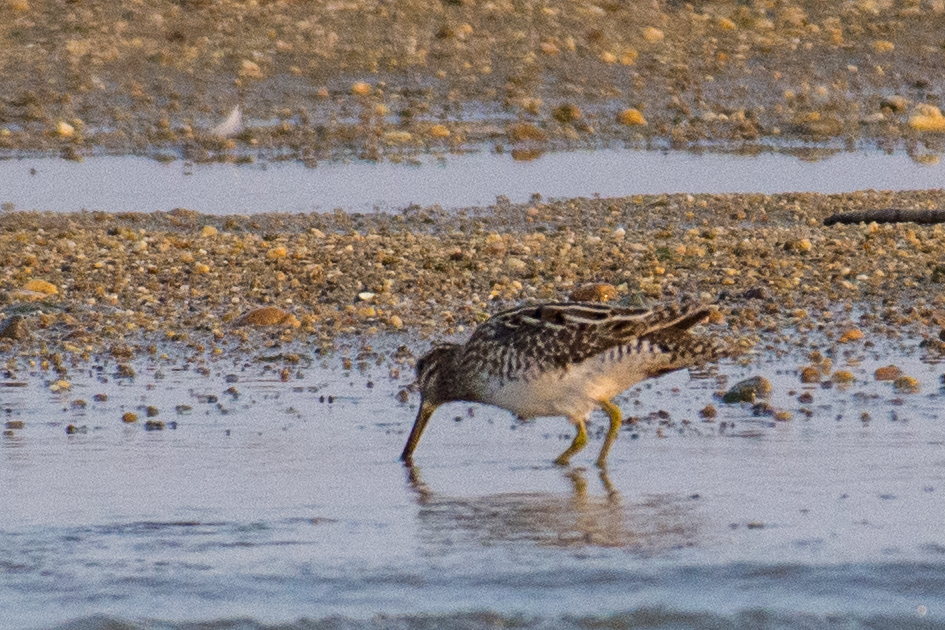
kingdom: Animalia
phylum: Chordata
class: Aves
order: Charadriiformes
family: Scolopacidae
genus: Gallinago
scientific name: Gallinago gallinago
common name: Common snipe
